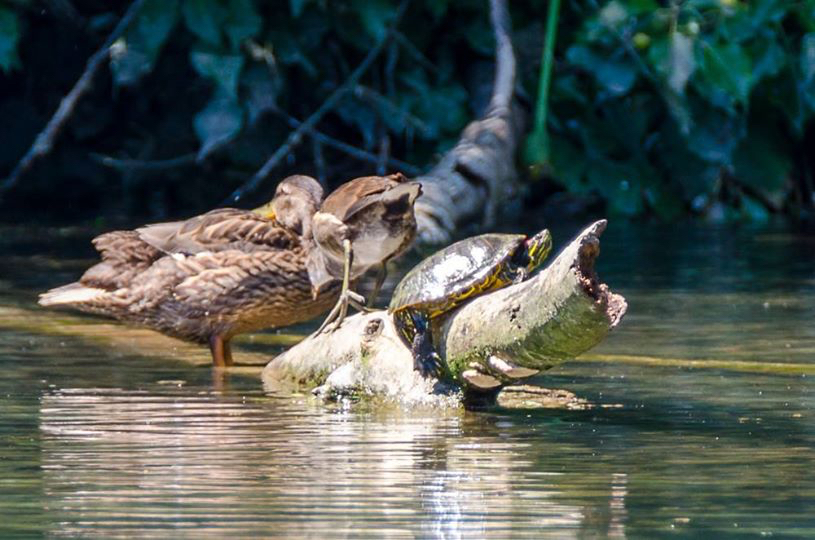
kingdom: Animalia
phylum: Chordata
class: Testudines
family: Emydidae
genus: Trachemys
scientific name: Trachemys scripta
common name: Slider
